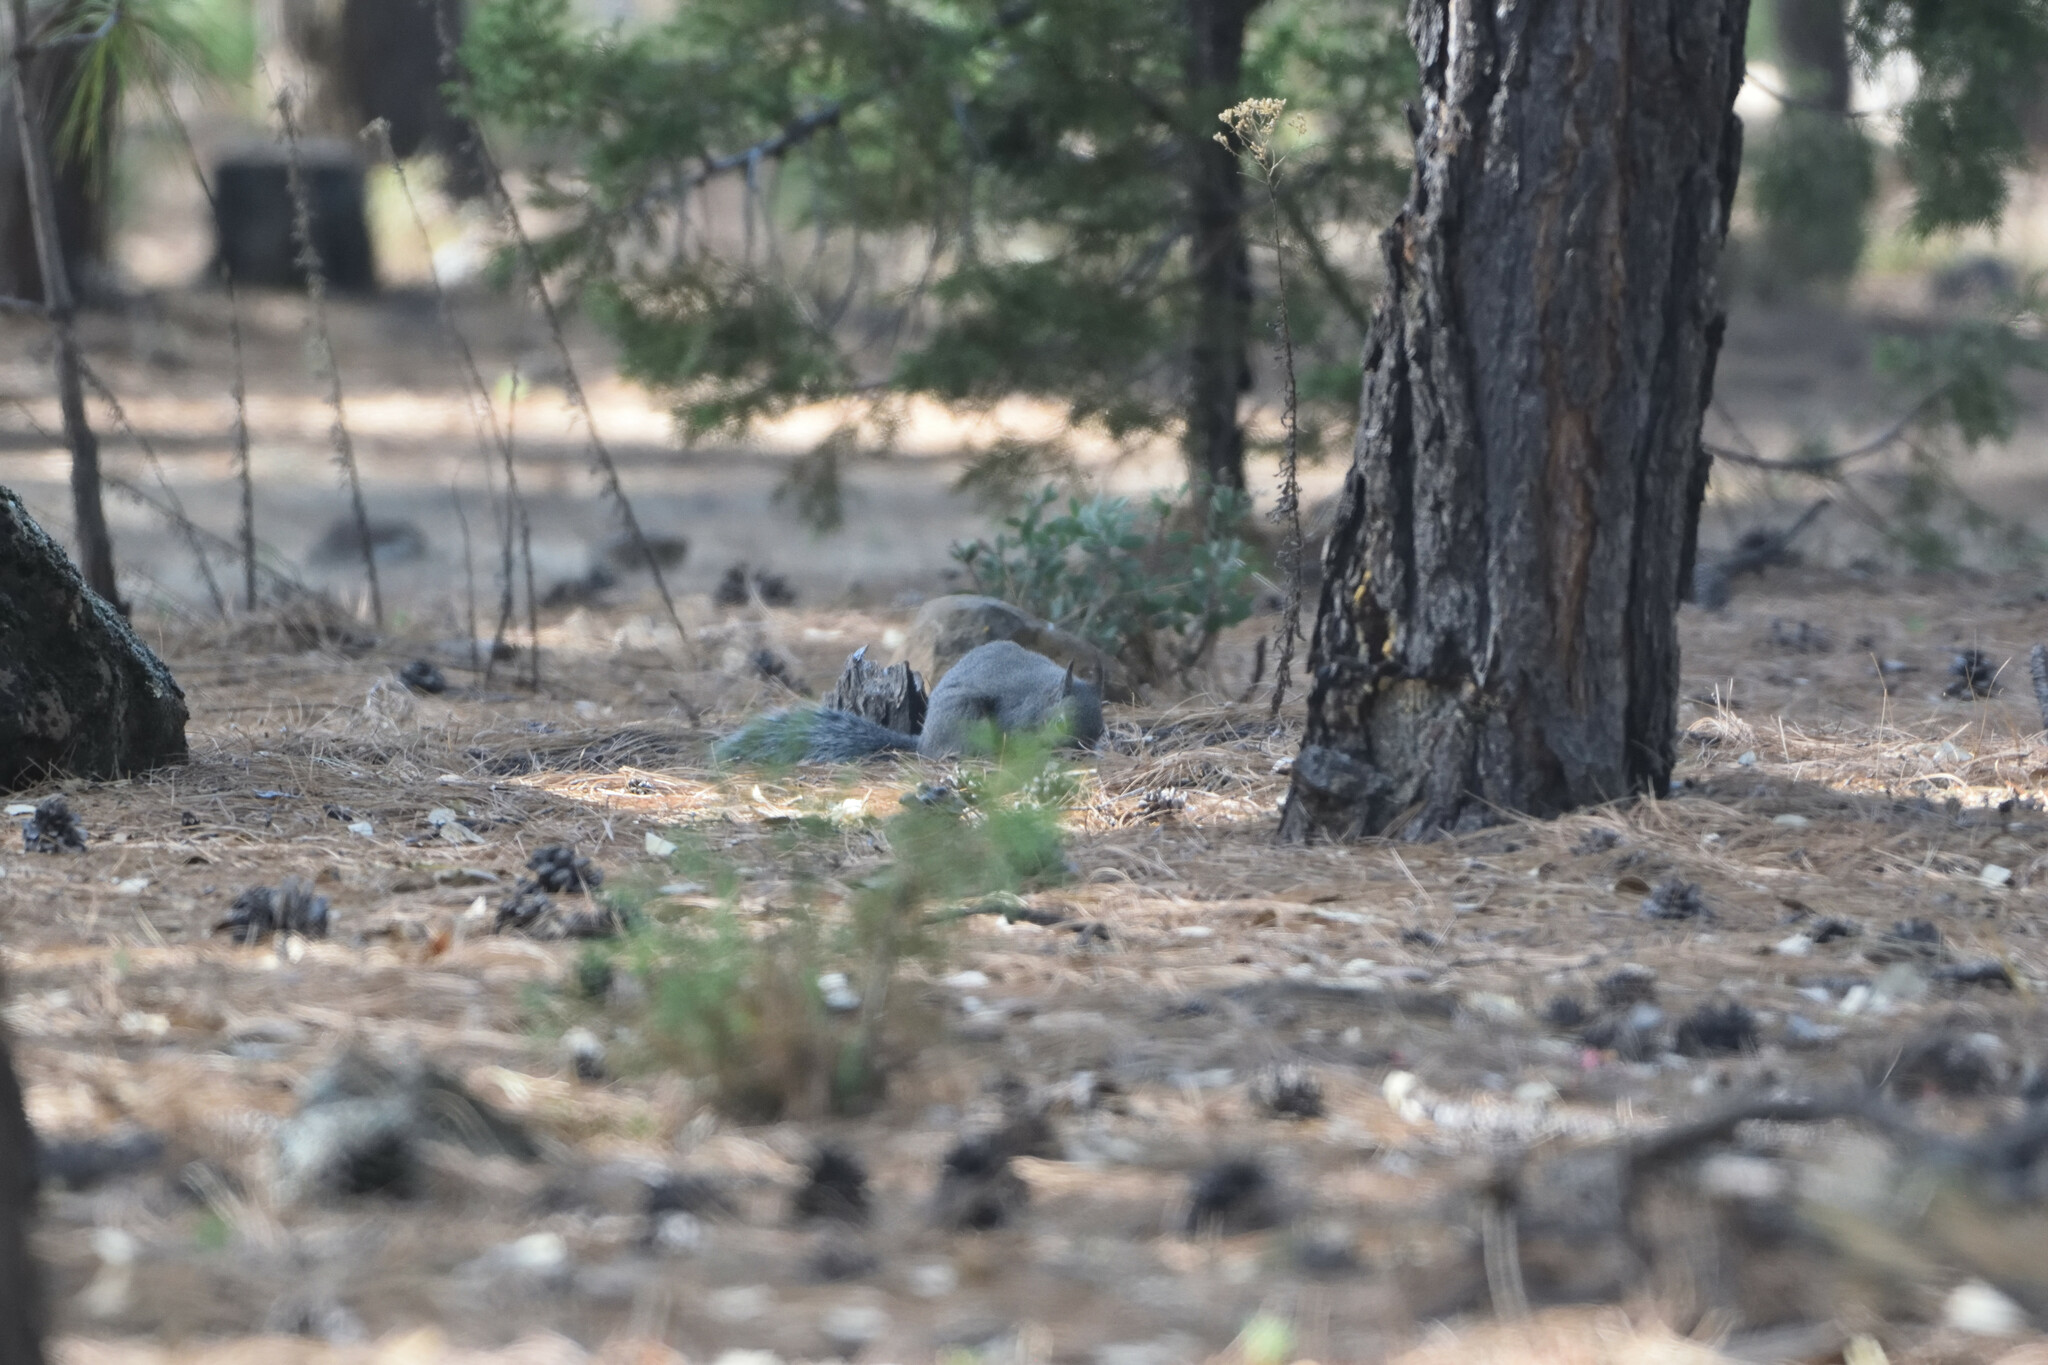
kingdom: Animalia
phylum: Chordata
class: Mammalia
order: Rodentia
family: Sciuridae
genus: Sciurus
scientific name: Sciurus aberti
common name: Abert's squirrel
